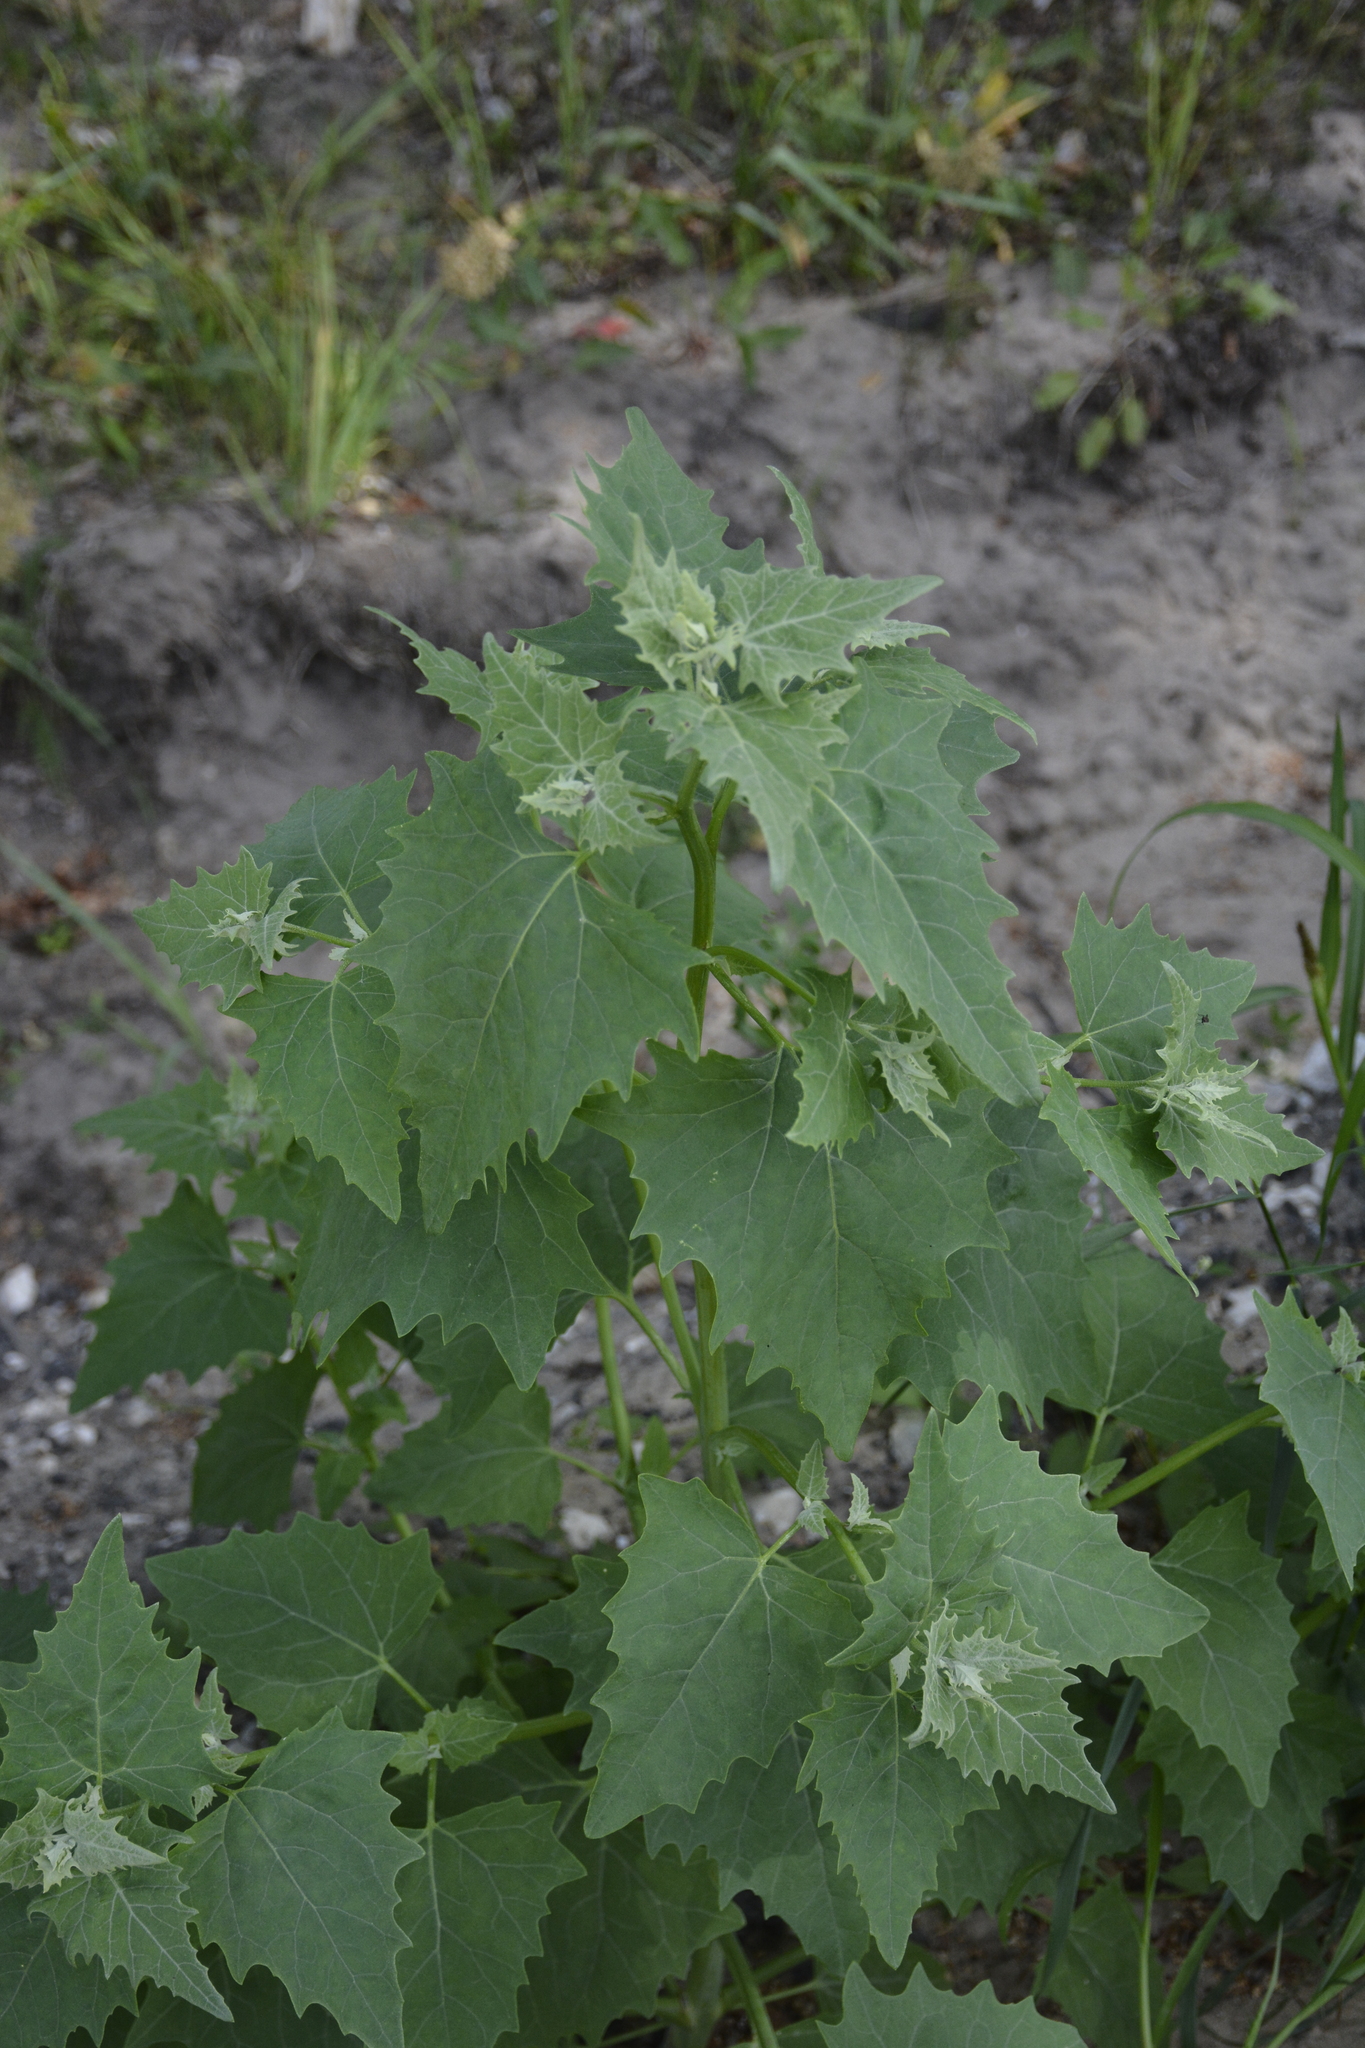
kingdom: Plantae
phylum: Tracheophyta
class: Magnoliopsida
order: Caryophyllales
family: Amaranthaceae
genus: Atriplex
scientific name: Atriplex sagittata
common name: Purple orache
